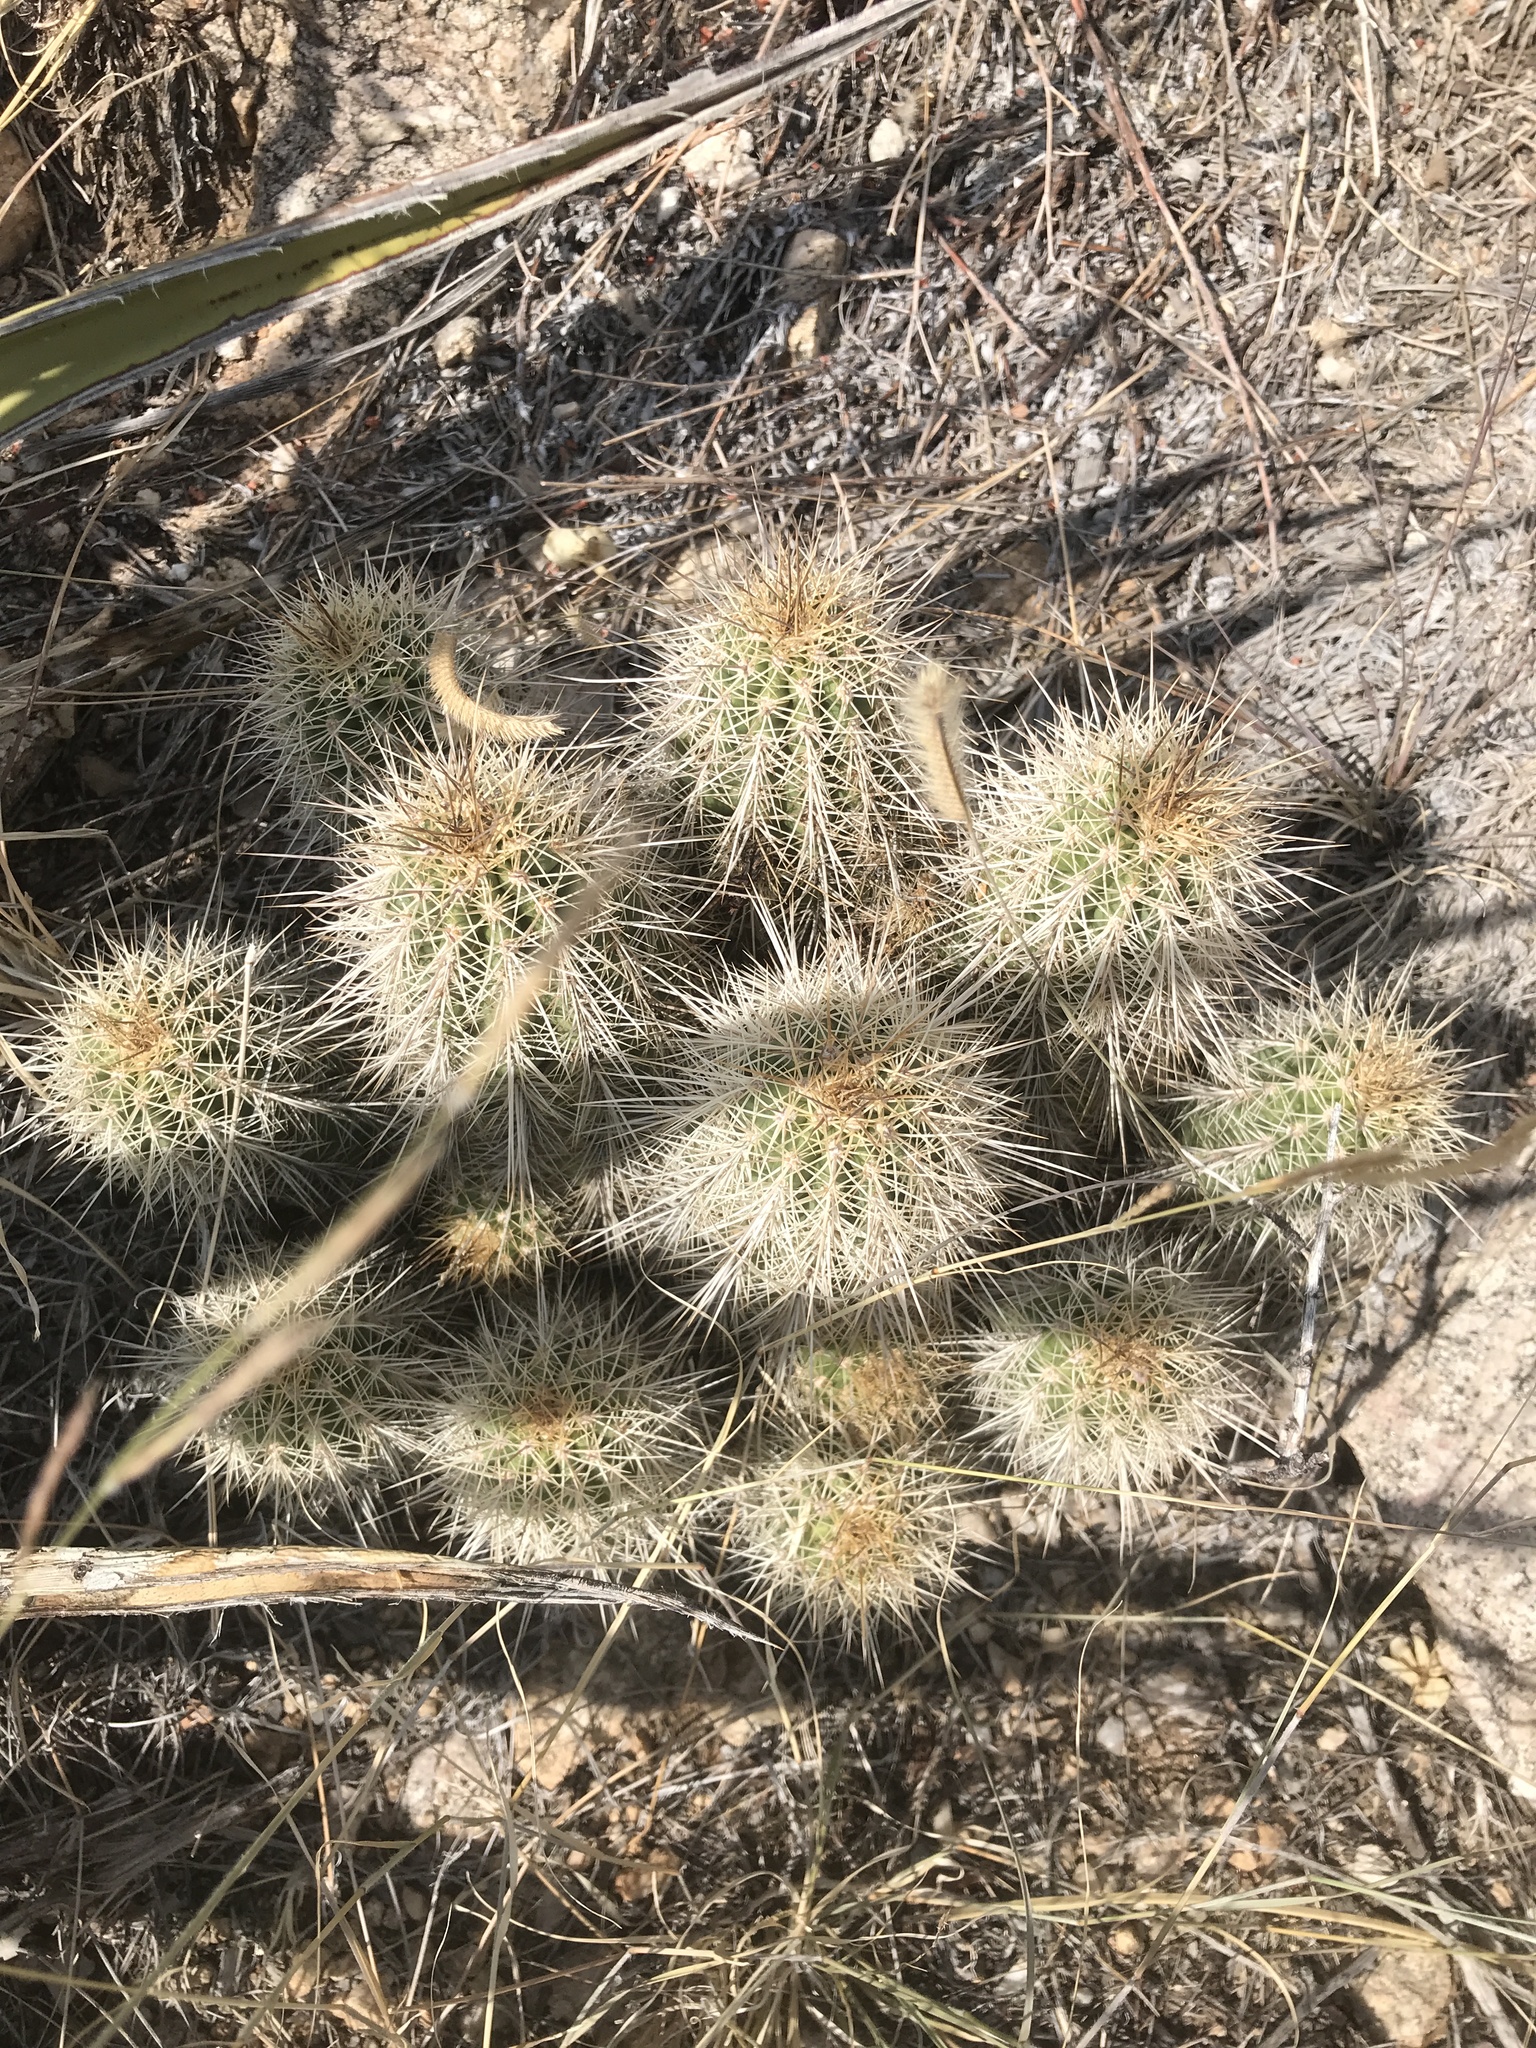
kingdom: Plantae
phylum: Tracheophyta
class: Magnoliopsida
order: Caryophyllales
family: Cactaceae
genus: Echinocereus
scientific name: Echinocereus coccineus
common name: Scarlet hedgehog cactus
